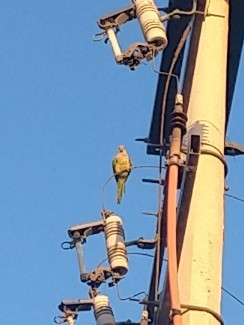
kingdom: Animalia
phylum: Chordata
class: Aves
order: Psittaciformes
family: Psittacidae
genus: Myiopsitta
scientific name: Myiopsitta monachus
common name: Monk parakeet
